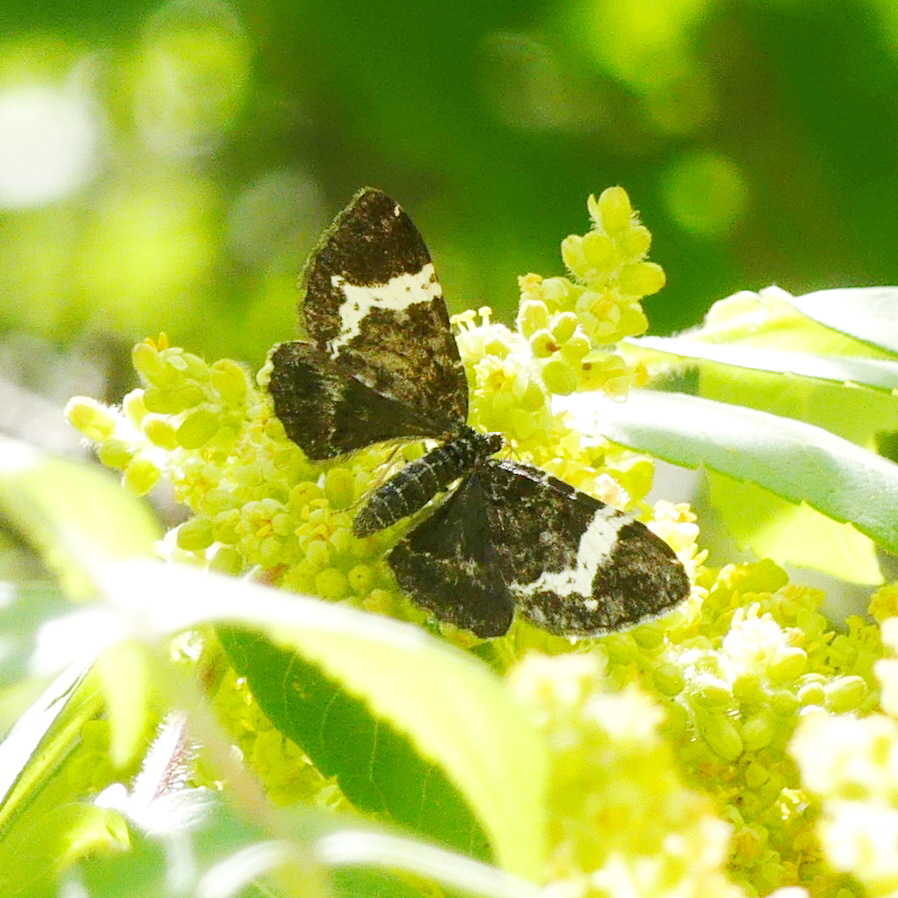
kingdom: Animalia
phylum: Arthropoda
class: Insecta
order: Lepidoptera
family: Geometridae
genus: Rheumaptera
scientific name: Rheumaptera
